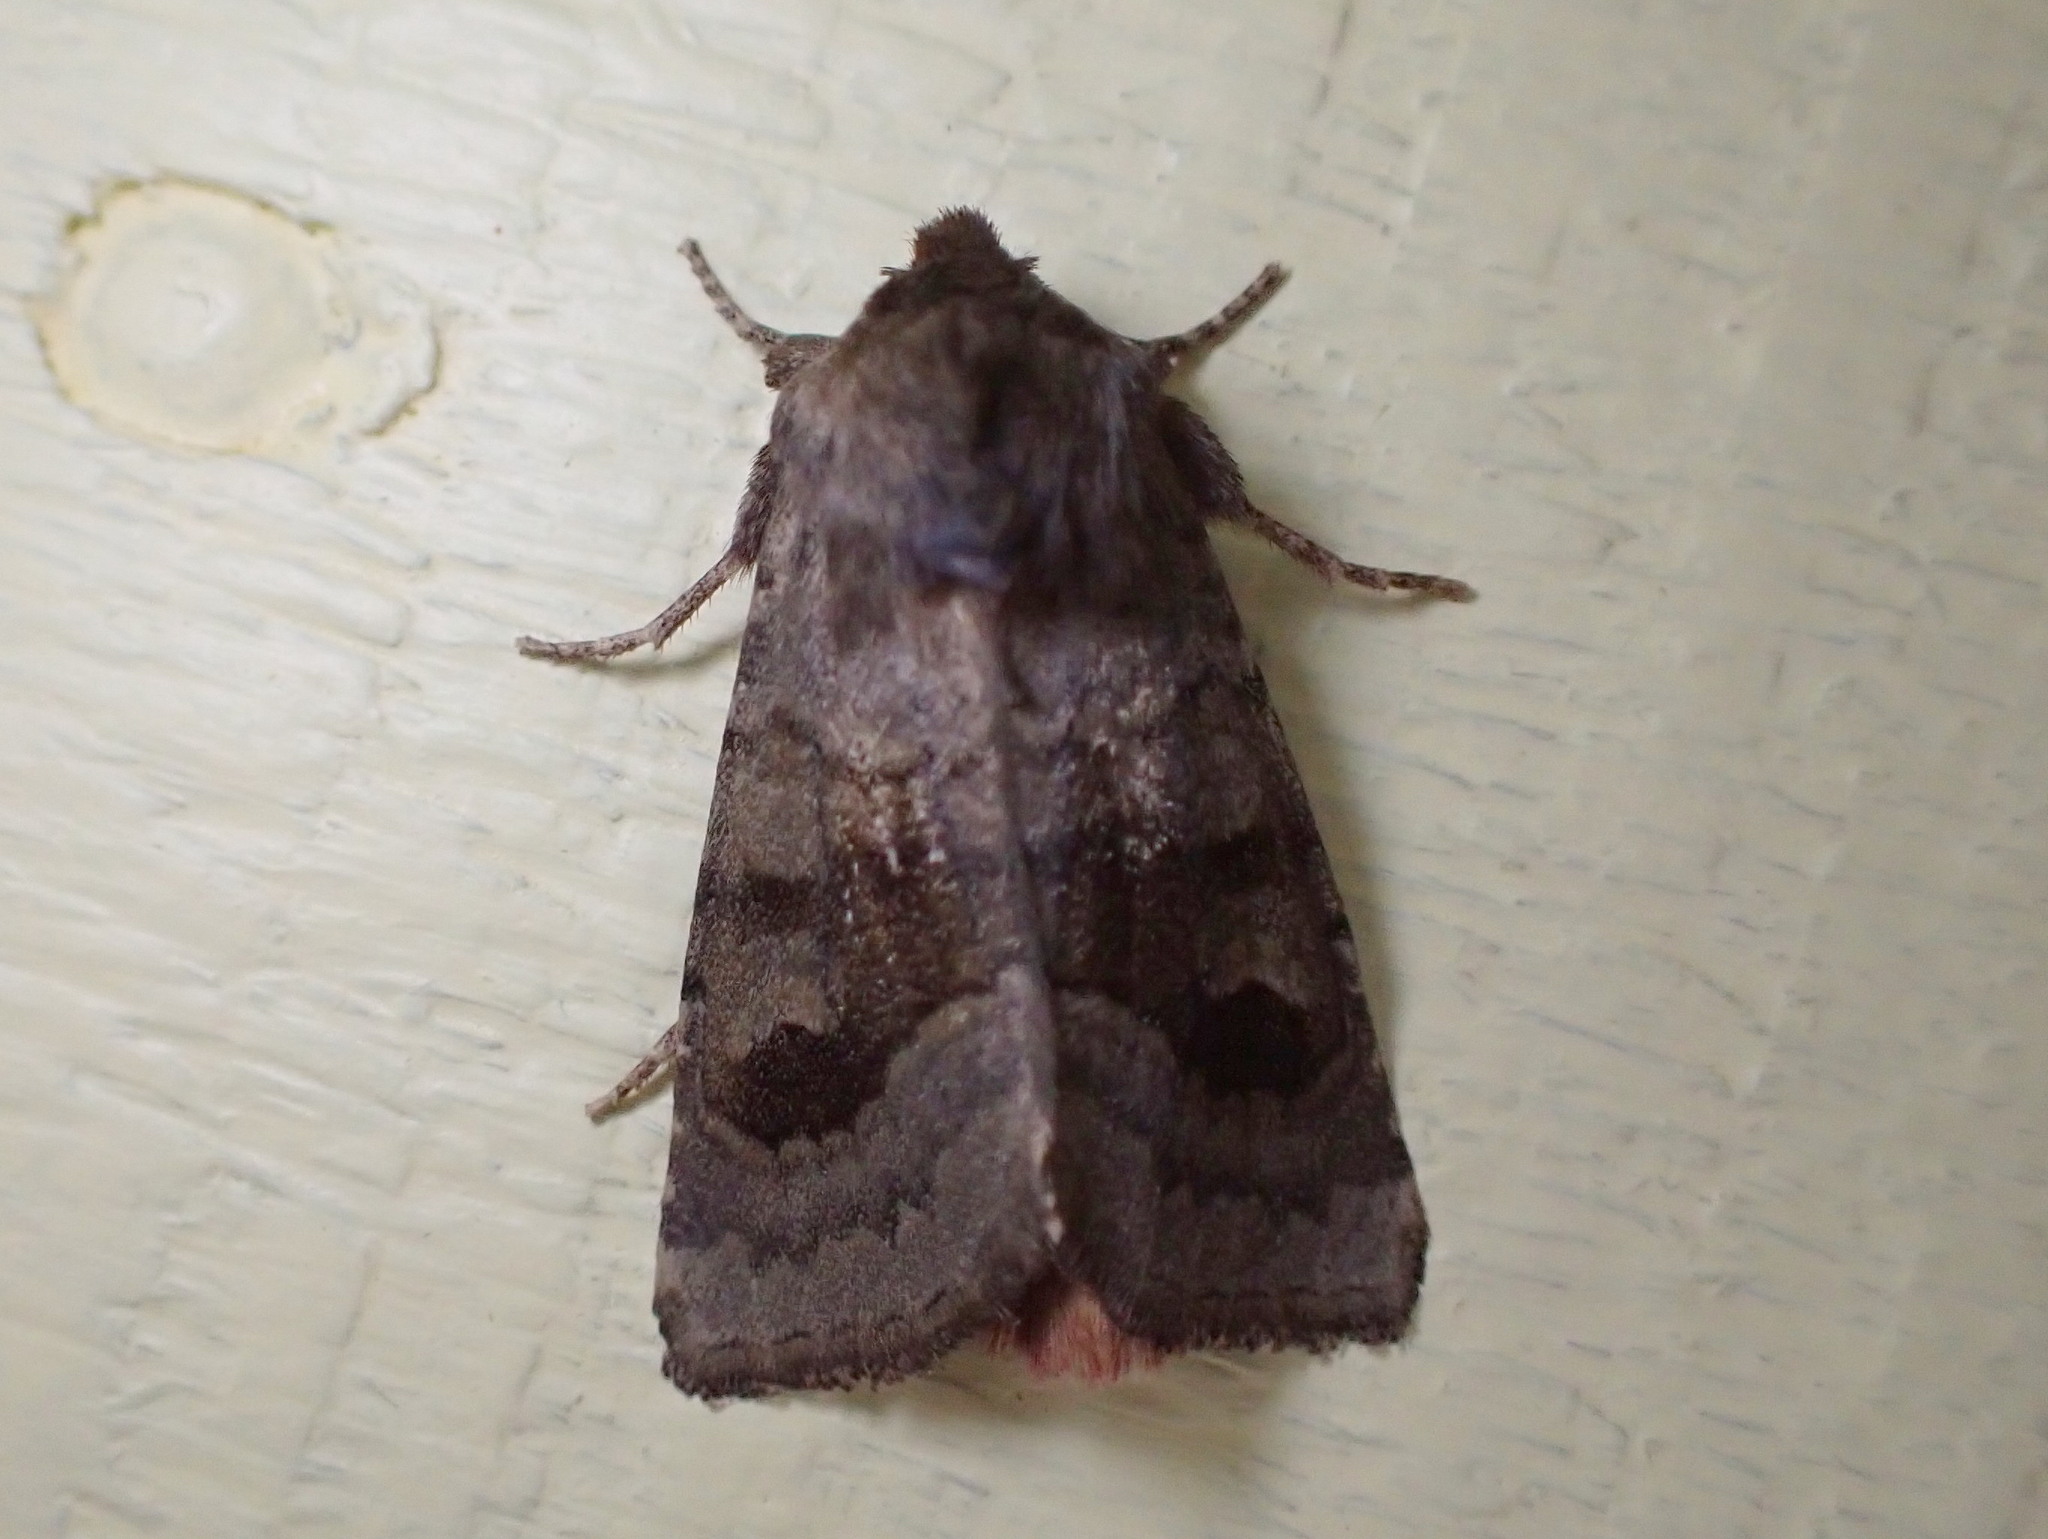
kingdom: Animalia
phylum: Arthropoda
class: Insecta
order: Lepidoptera
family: Noctuidae
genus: Nephelodes
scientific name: Nephelodes minians
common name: Bronzed cutworm
